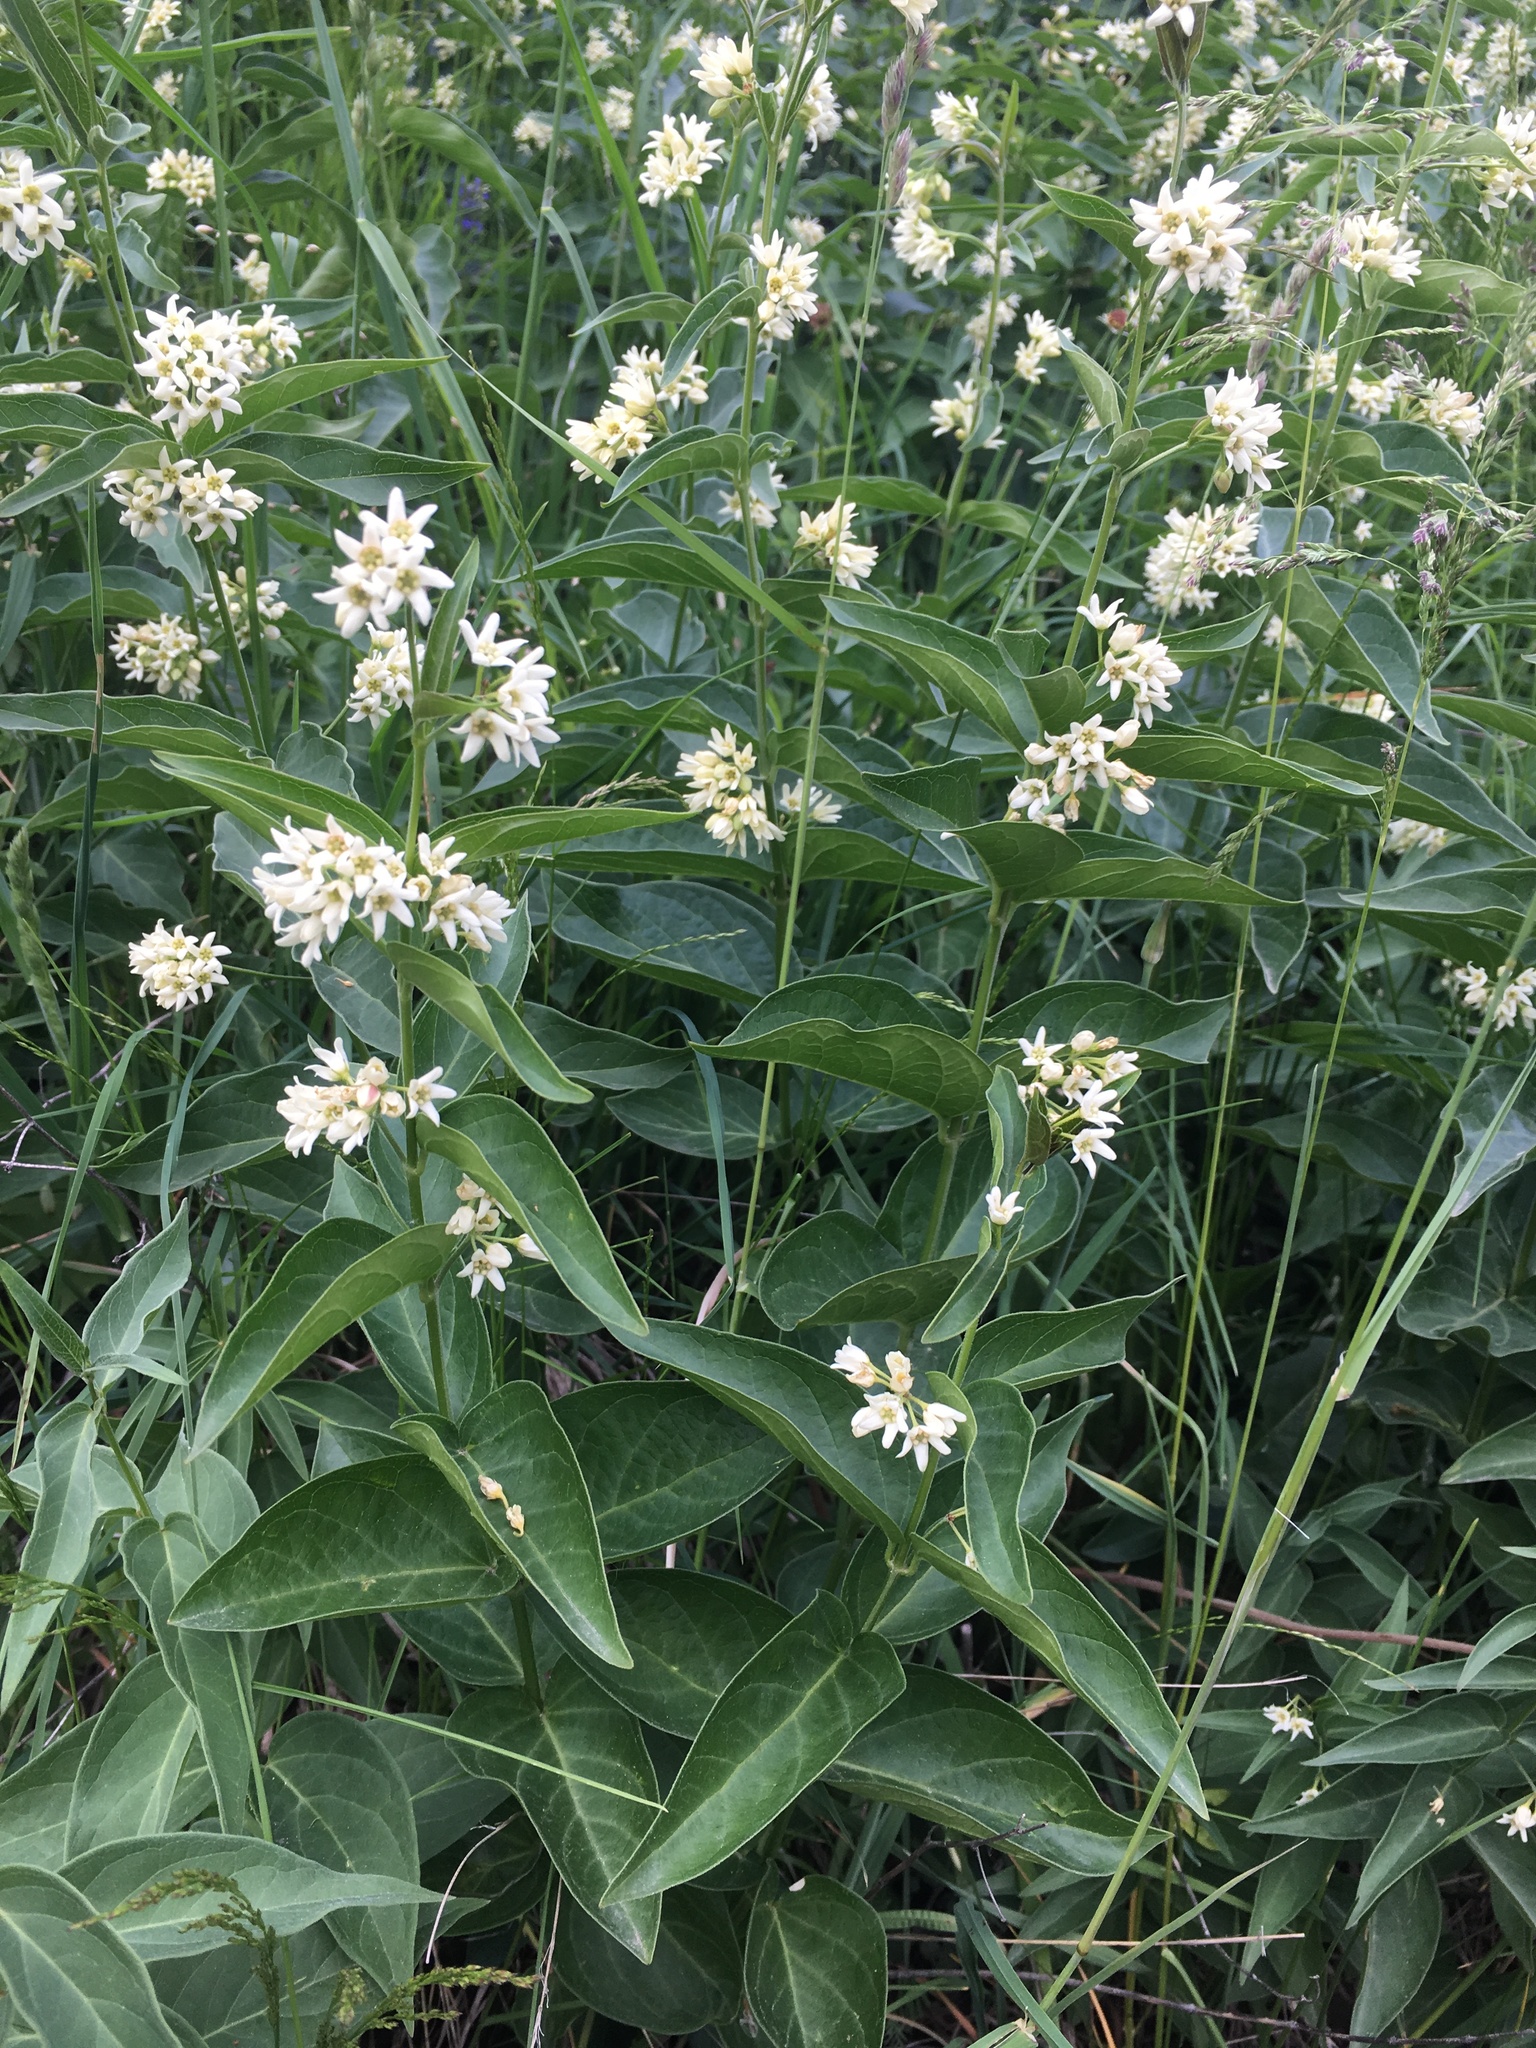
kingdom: Plantae
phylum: Tracheophyta
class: Magnoliopsida
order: Gentianales
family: Apocynaceae
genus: Vincetoxicum
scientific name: Vincetoxicum hirundinaria
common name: White swallowwort
